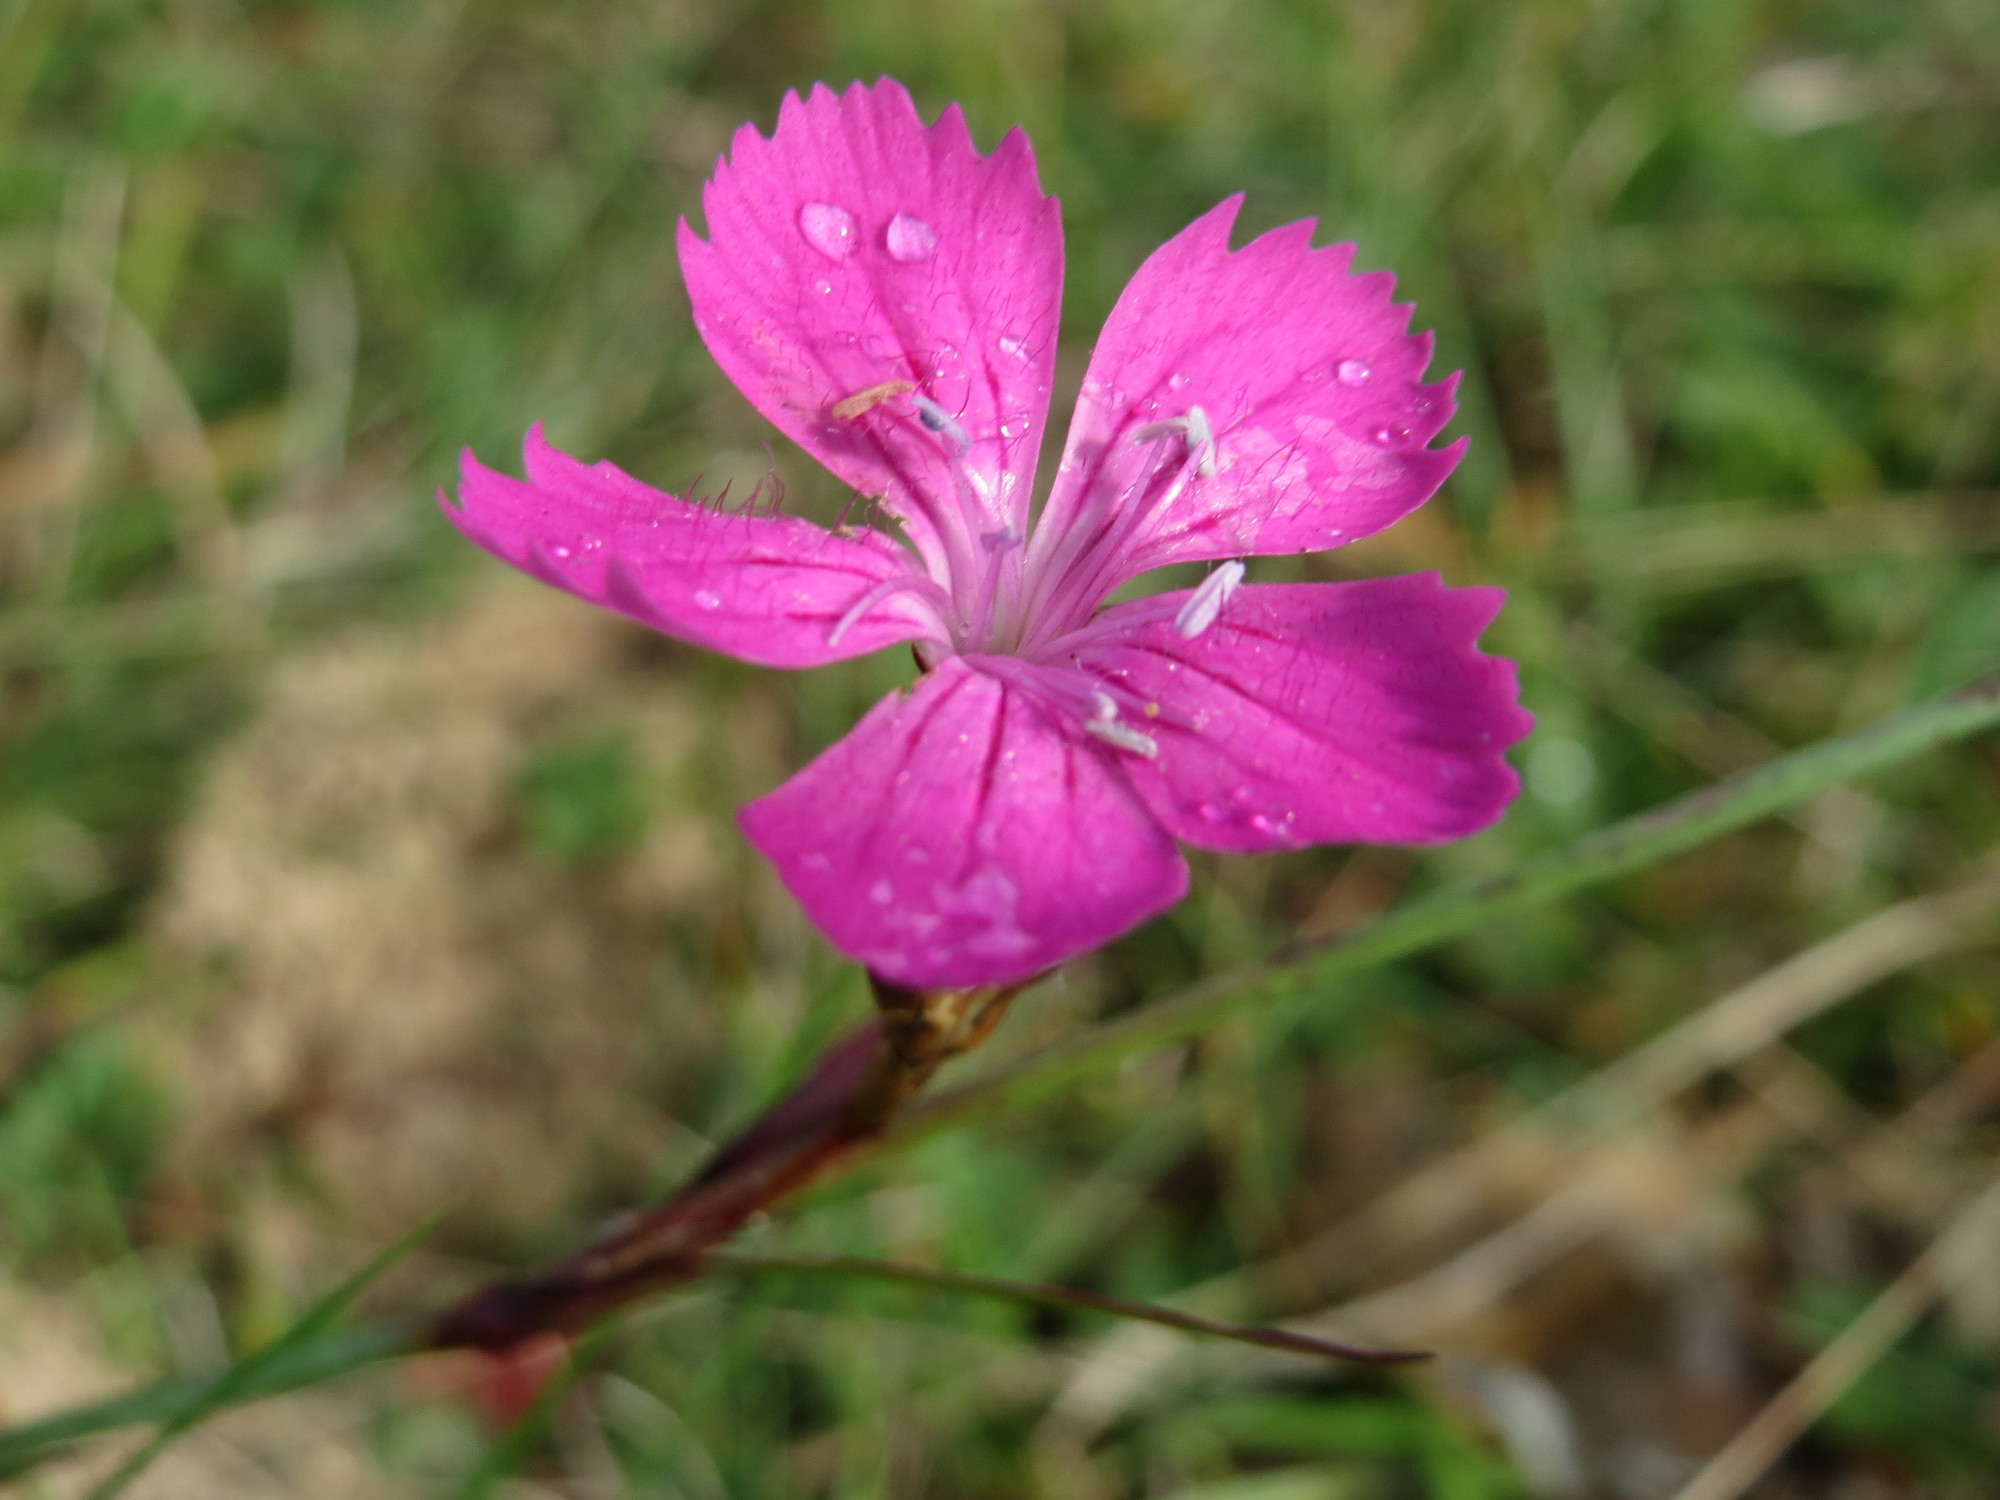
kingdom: Plantae
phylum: Tracheophyta
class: Magnoliopsida
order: Caryophyllales
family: Caryophyllaceae
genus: Dianthus
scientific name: Dianthus carthusianorum
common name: Carthusian pink
